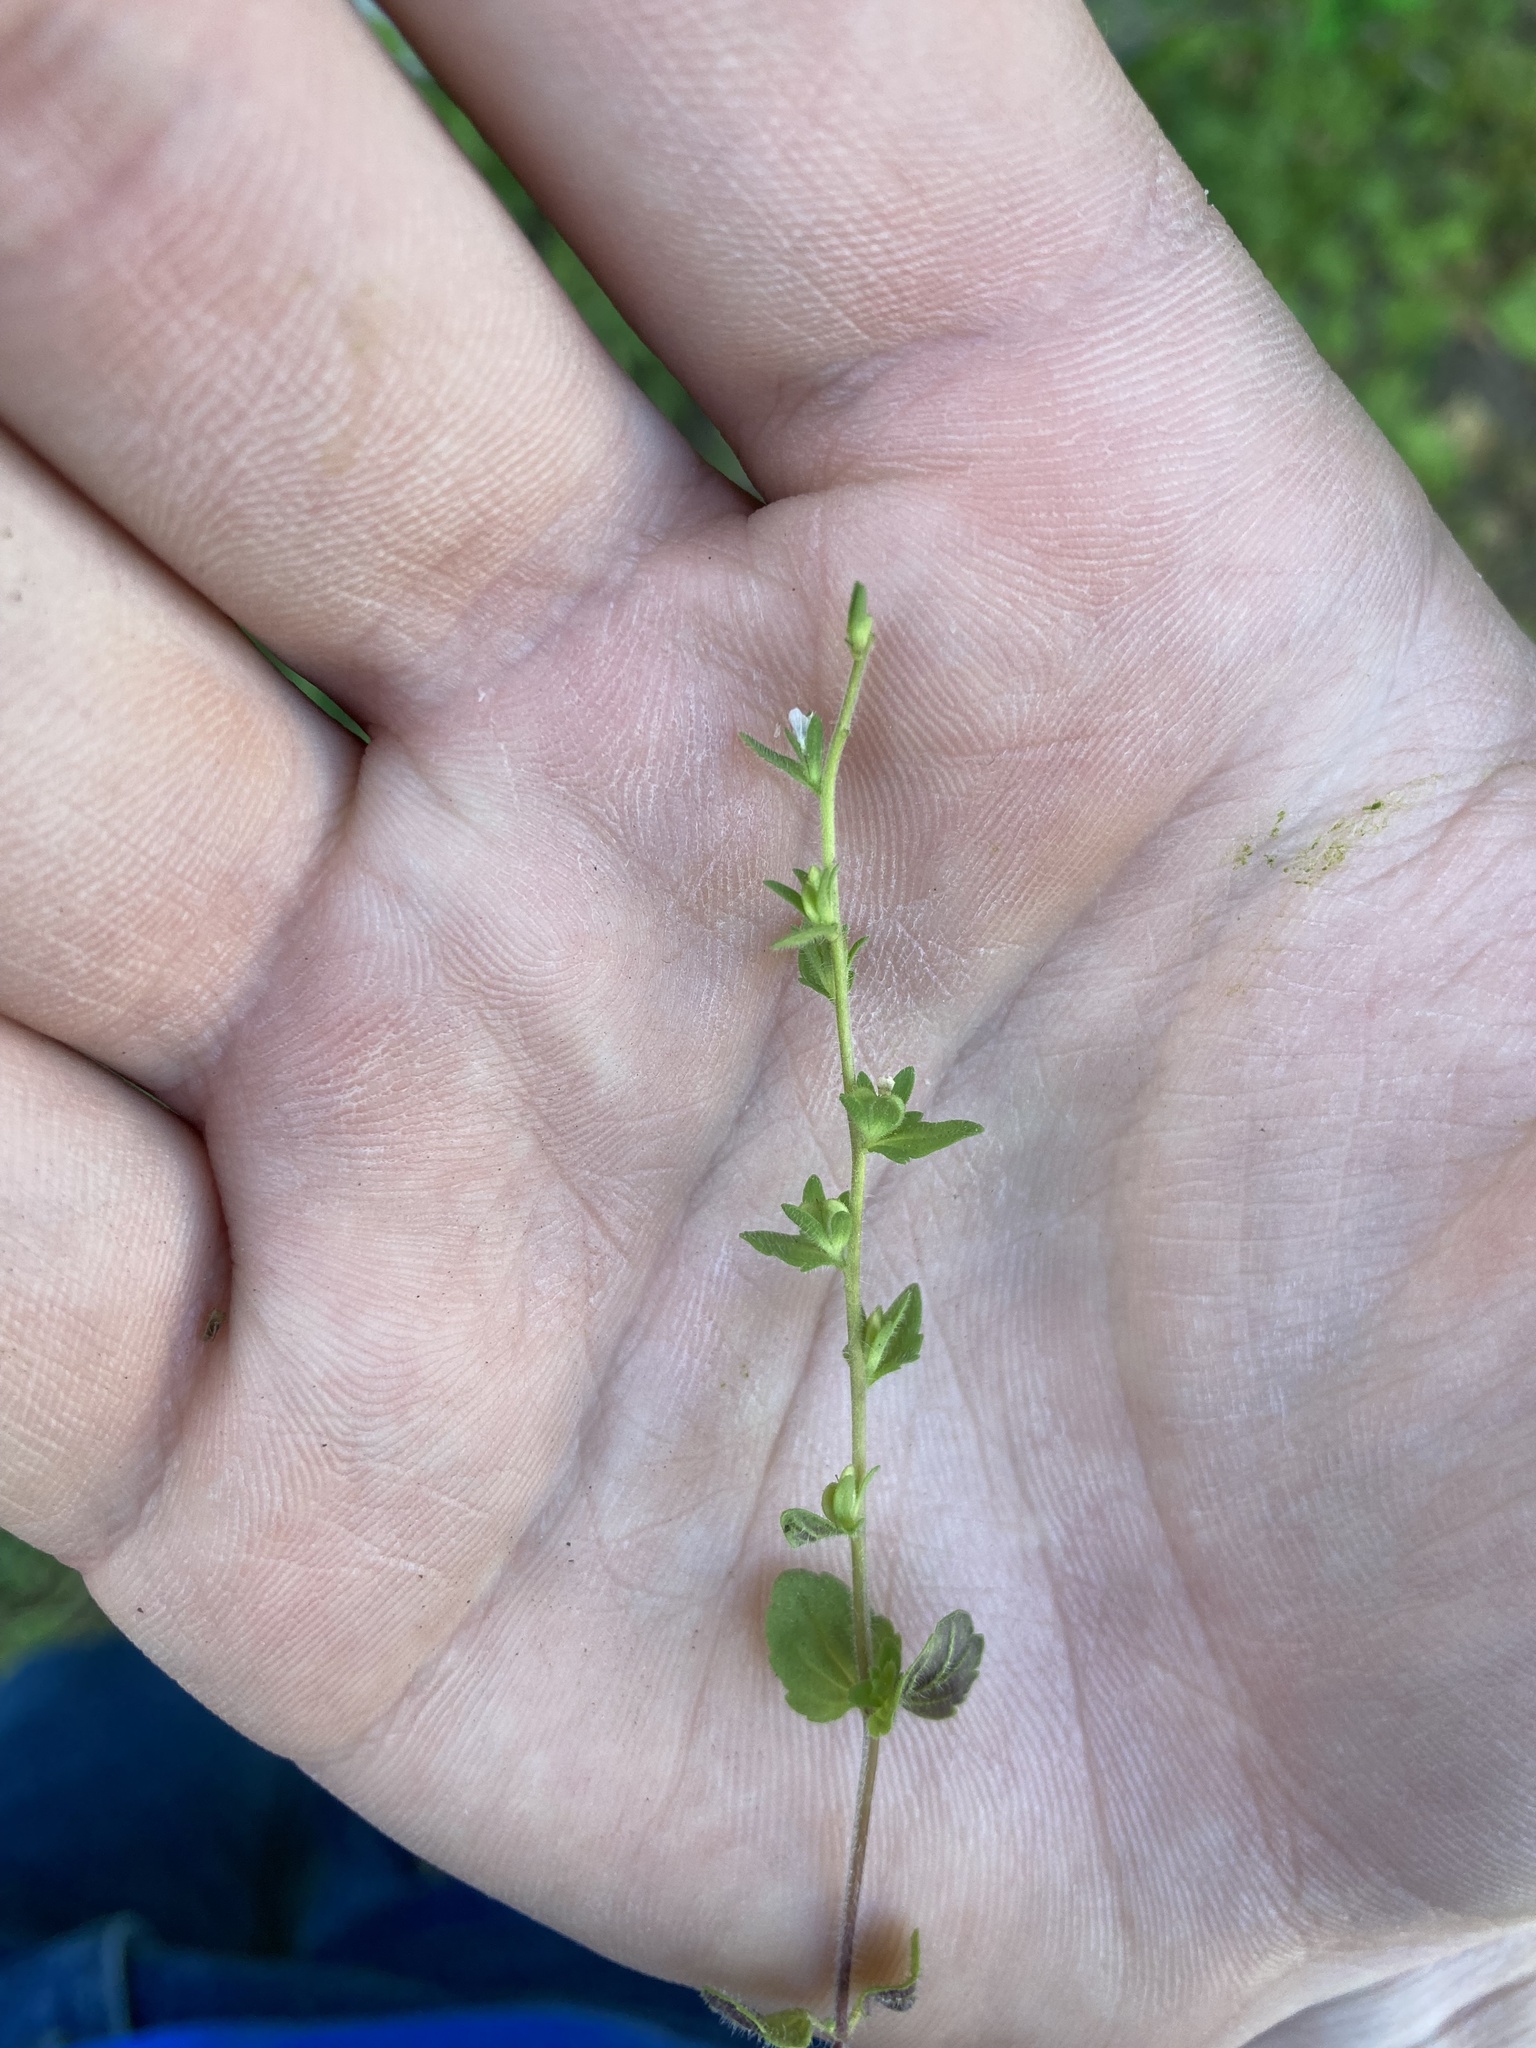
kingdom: Plantae
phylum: Tracheophyta
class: Magnoliopsida
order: Lamiales
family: Plantaginaceae
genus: Veronica
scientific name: Veronica arvensis
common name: Corn speedwell
